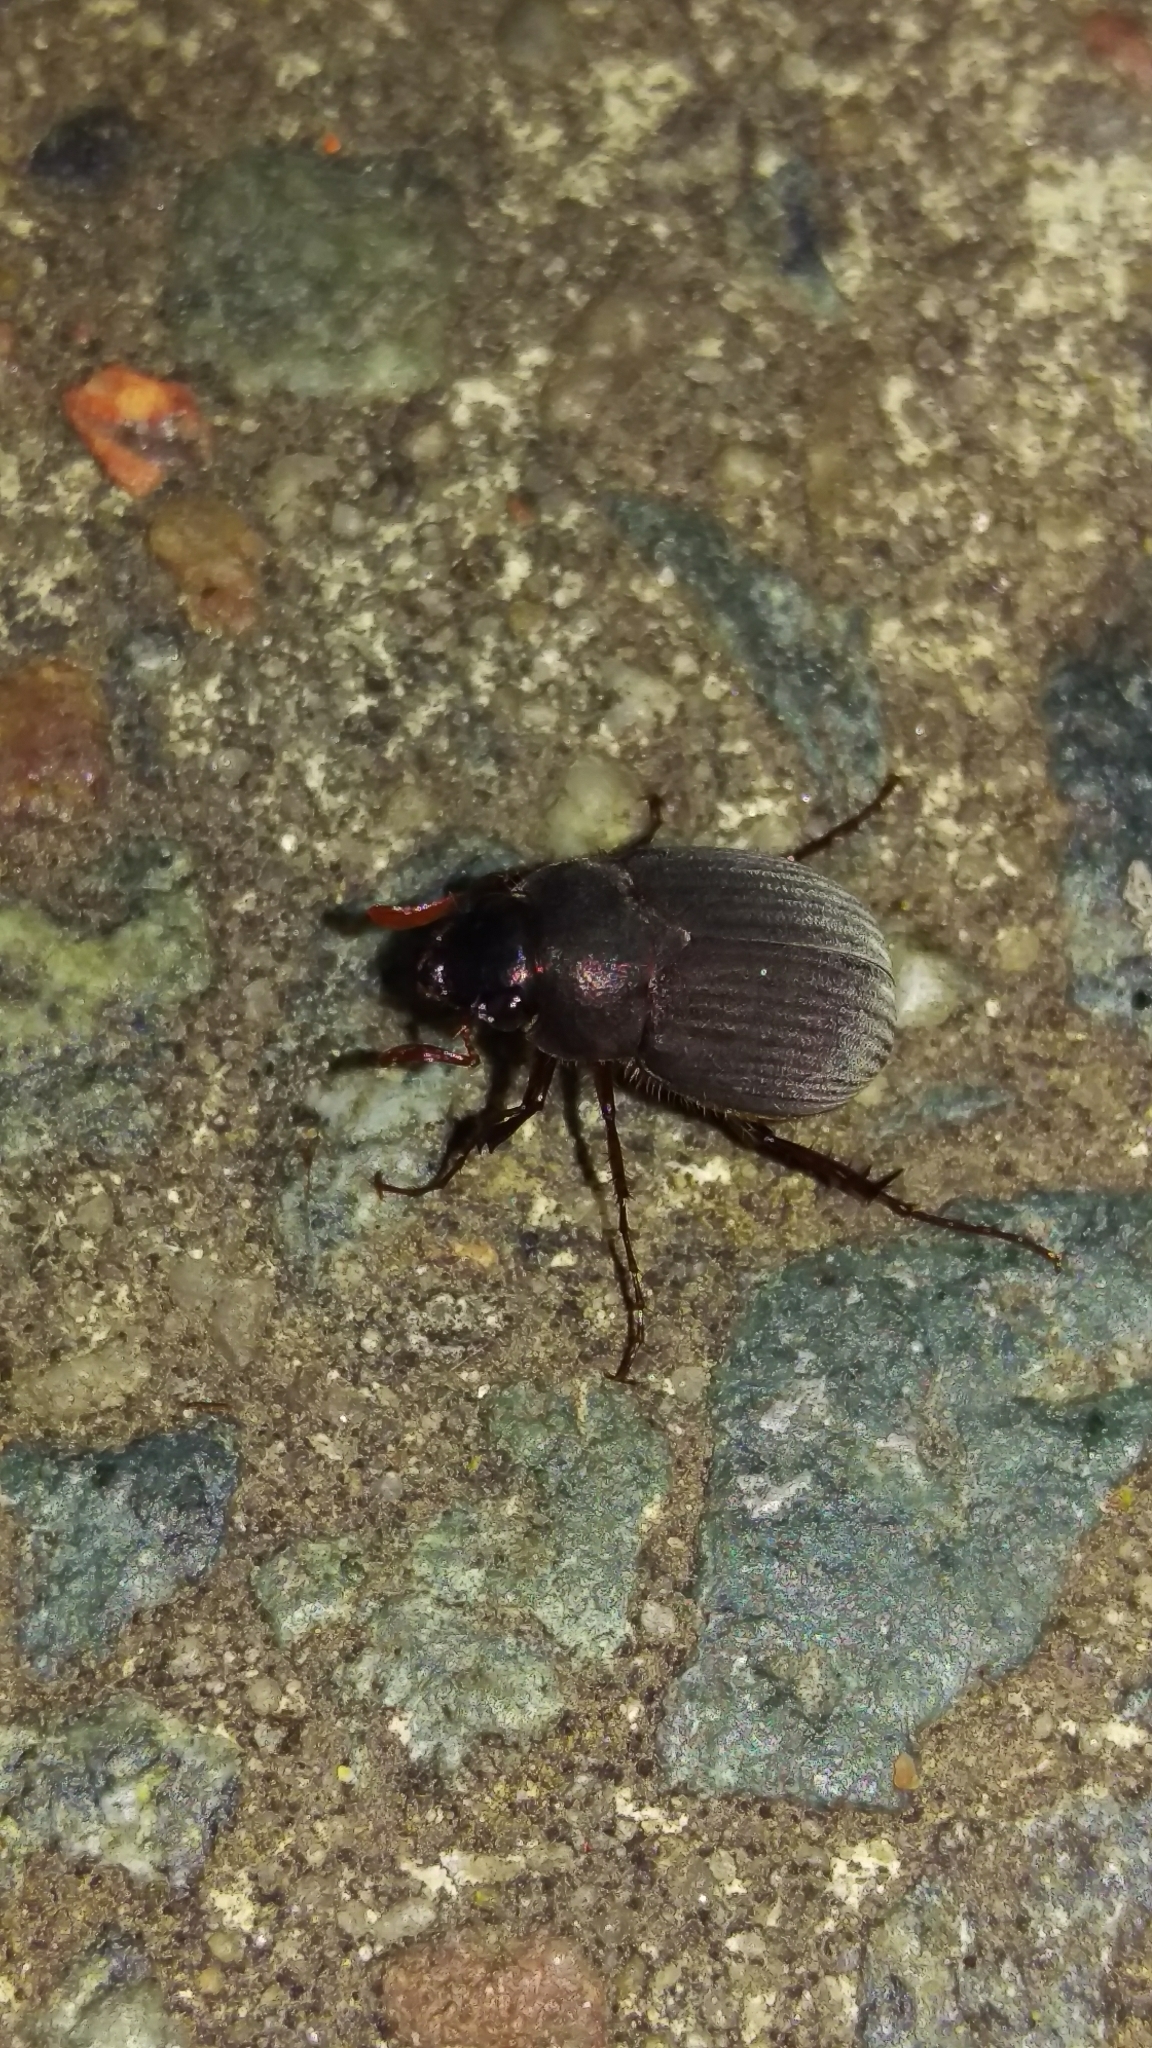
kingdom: Animalia
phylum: Arthropoda
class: Insecta
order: Coleoptera
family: Scarabaeidae
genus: Maladera
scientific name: Maladera holosericea
